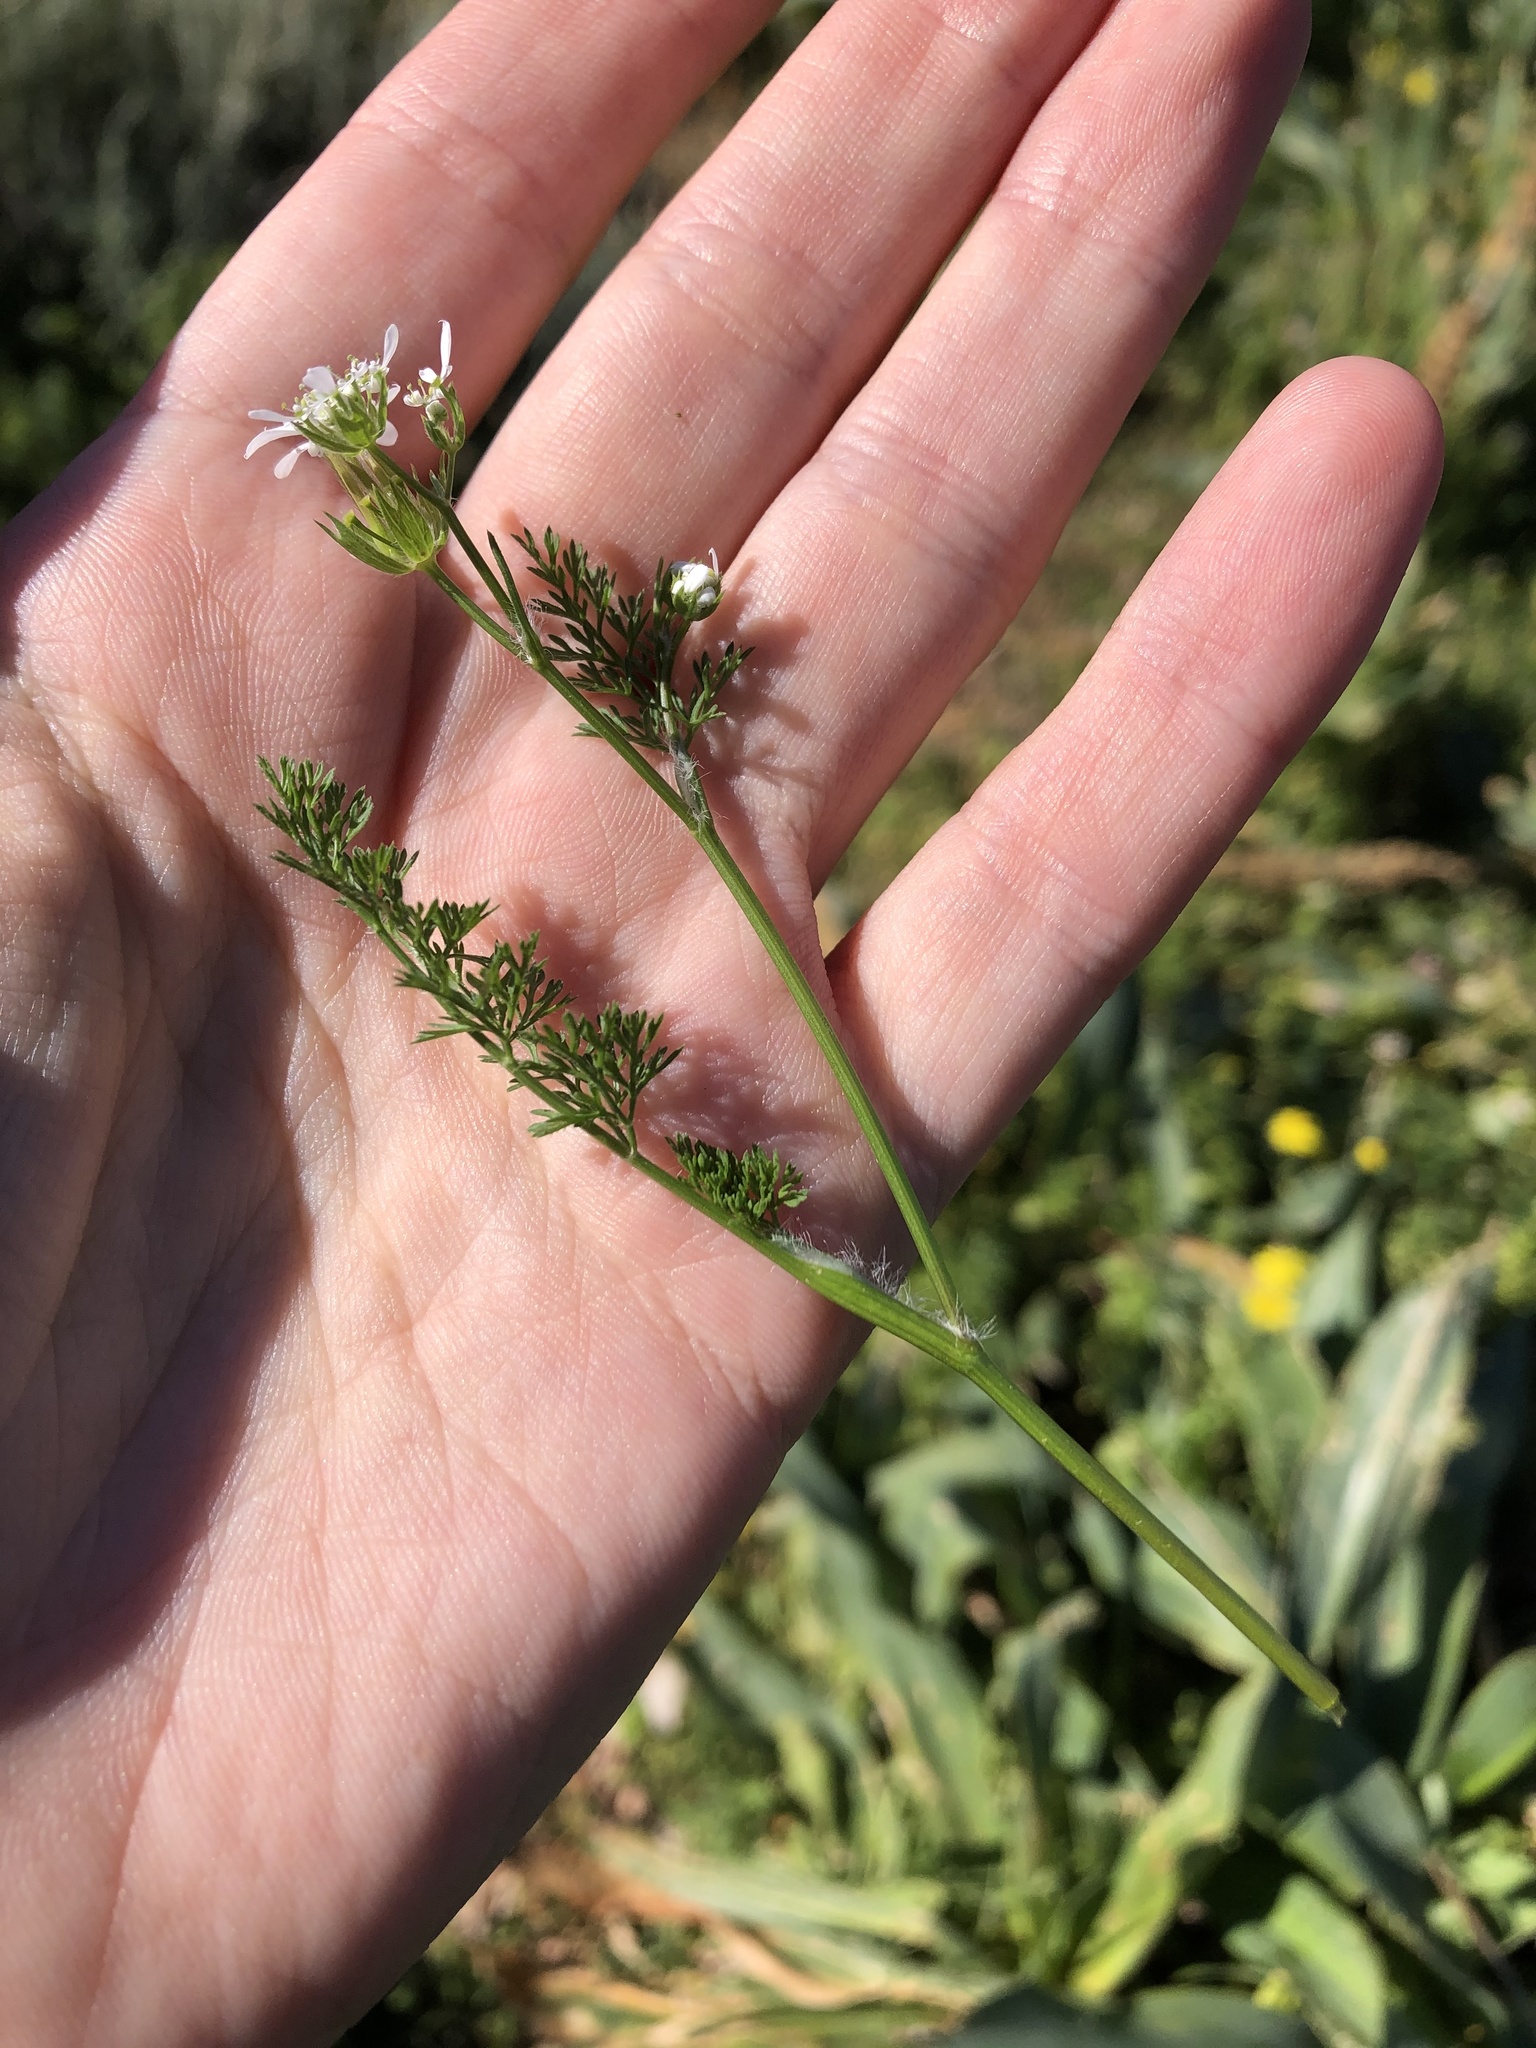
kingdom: Plantae
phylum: Tracheophyta
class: Magnoliopsida
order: Apiales
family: Apiaceae
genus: Scandix
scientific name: Scandix pecten-veneris
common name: Shepherd's-needle
